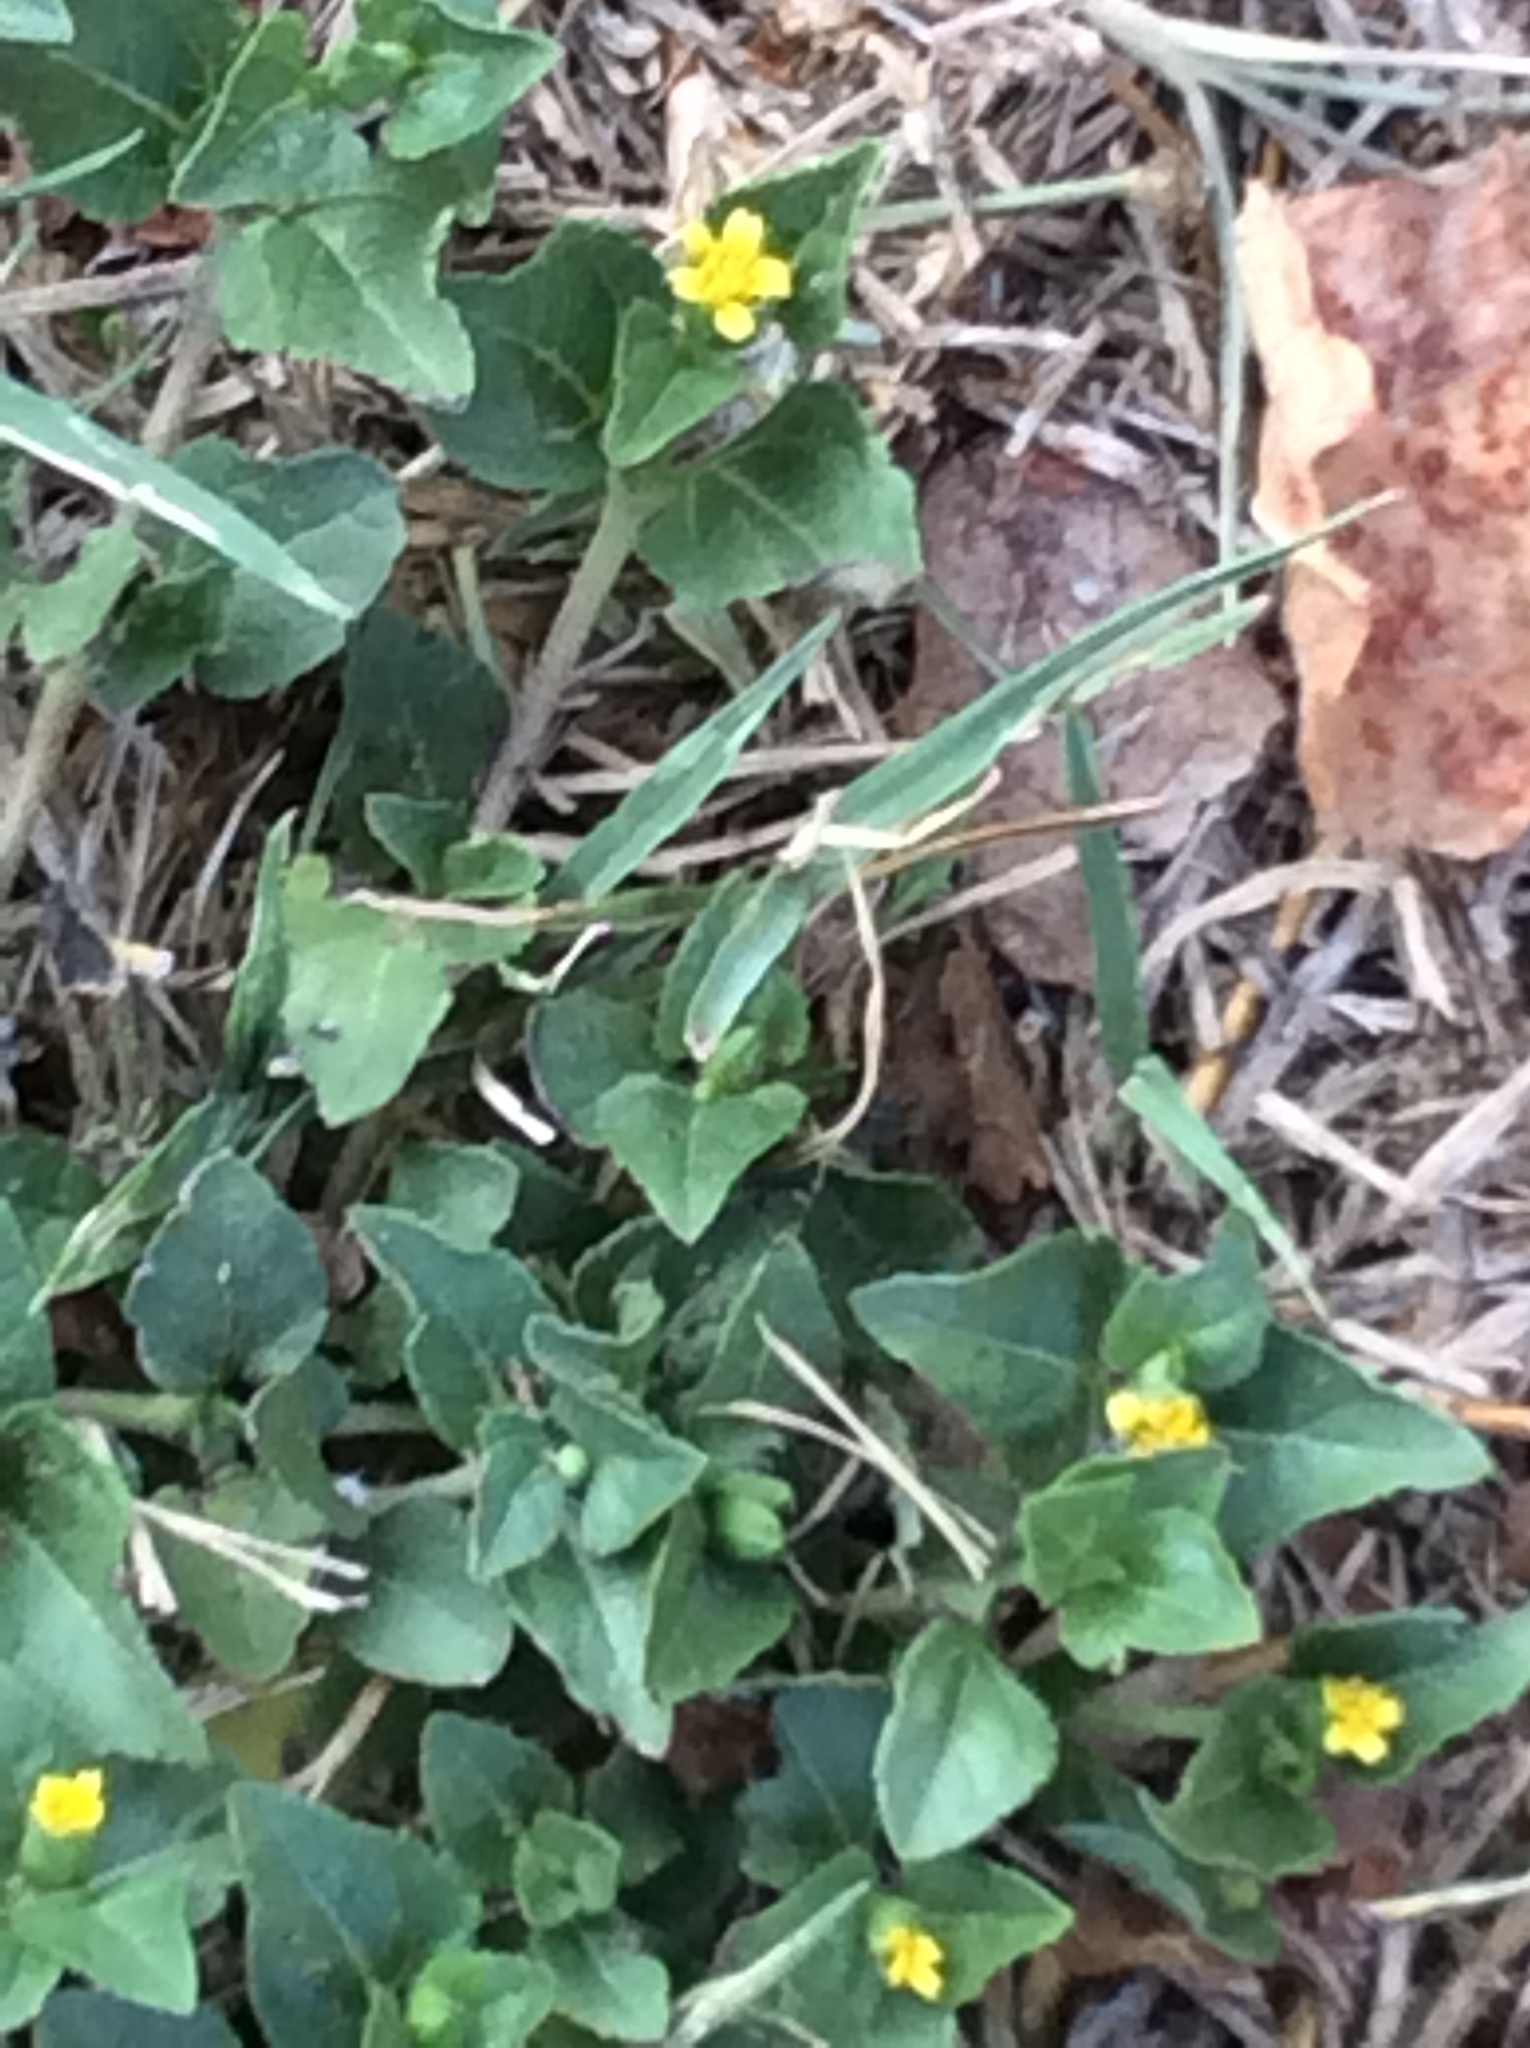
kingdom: Plantae
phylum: Tracheophyta
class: Magnoliopsida
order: Asterales
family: Asteraceae
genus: Calyptocarpus
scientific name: Calyptocarpus vialis
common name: Straggler daisy
